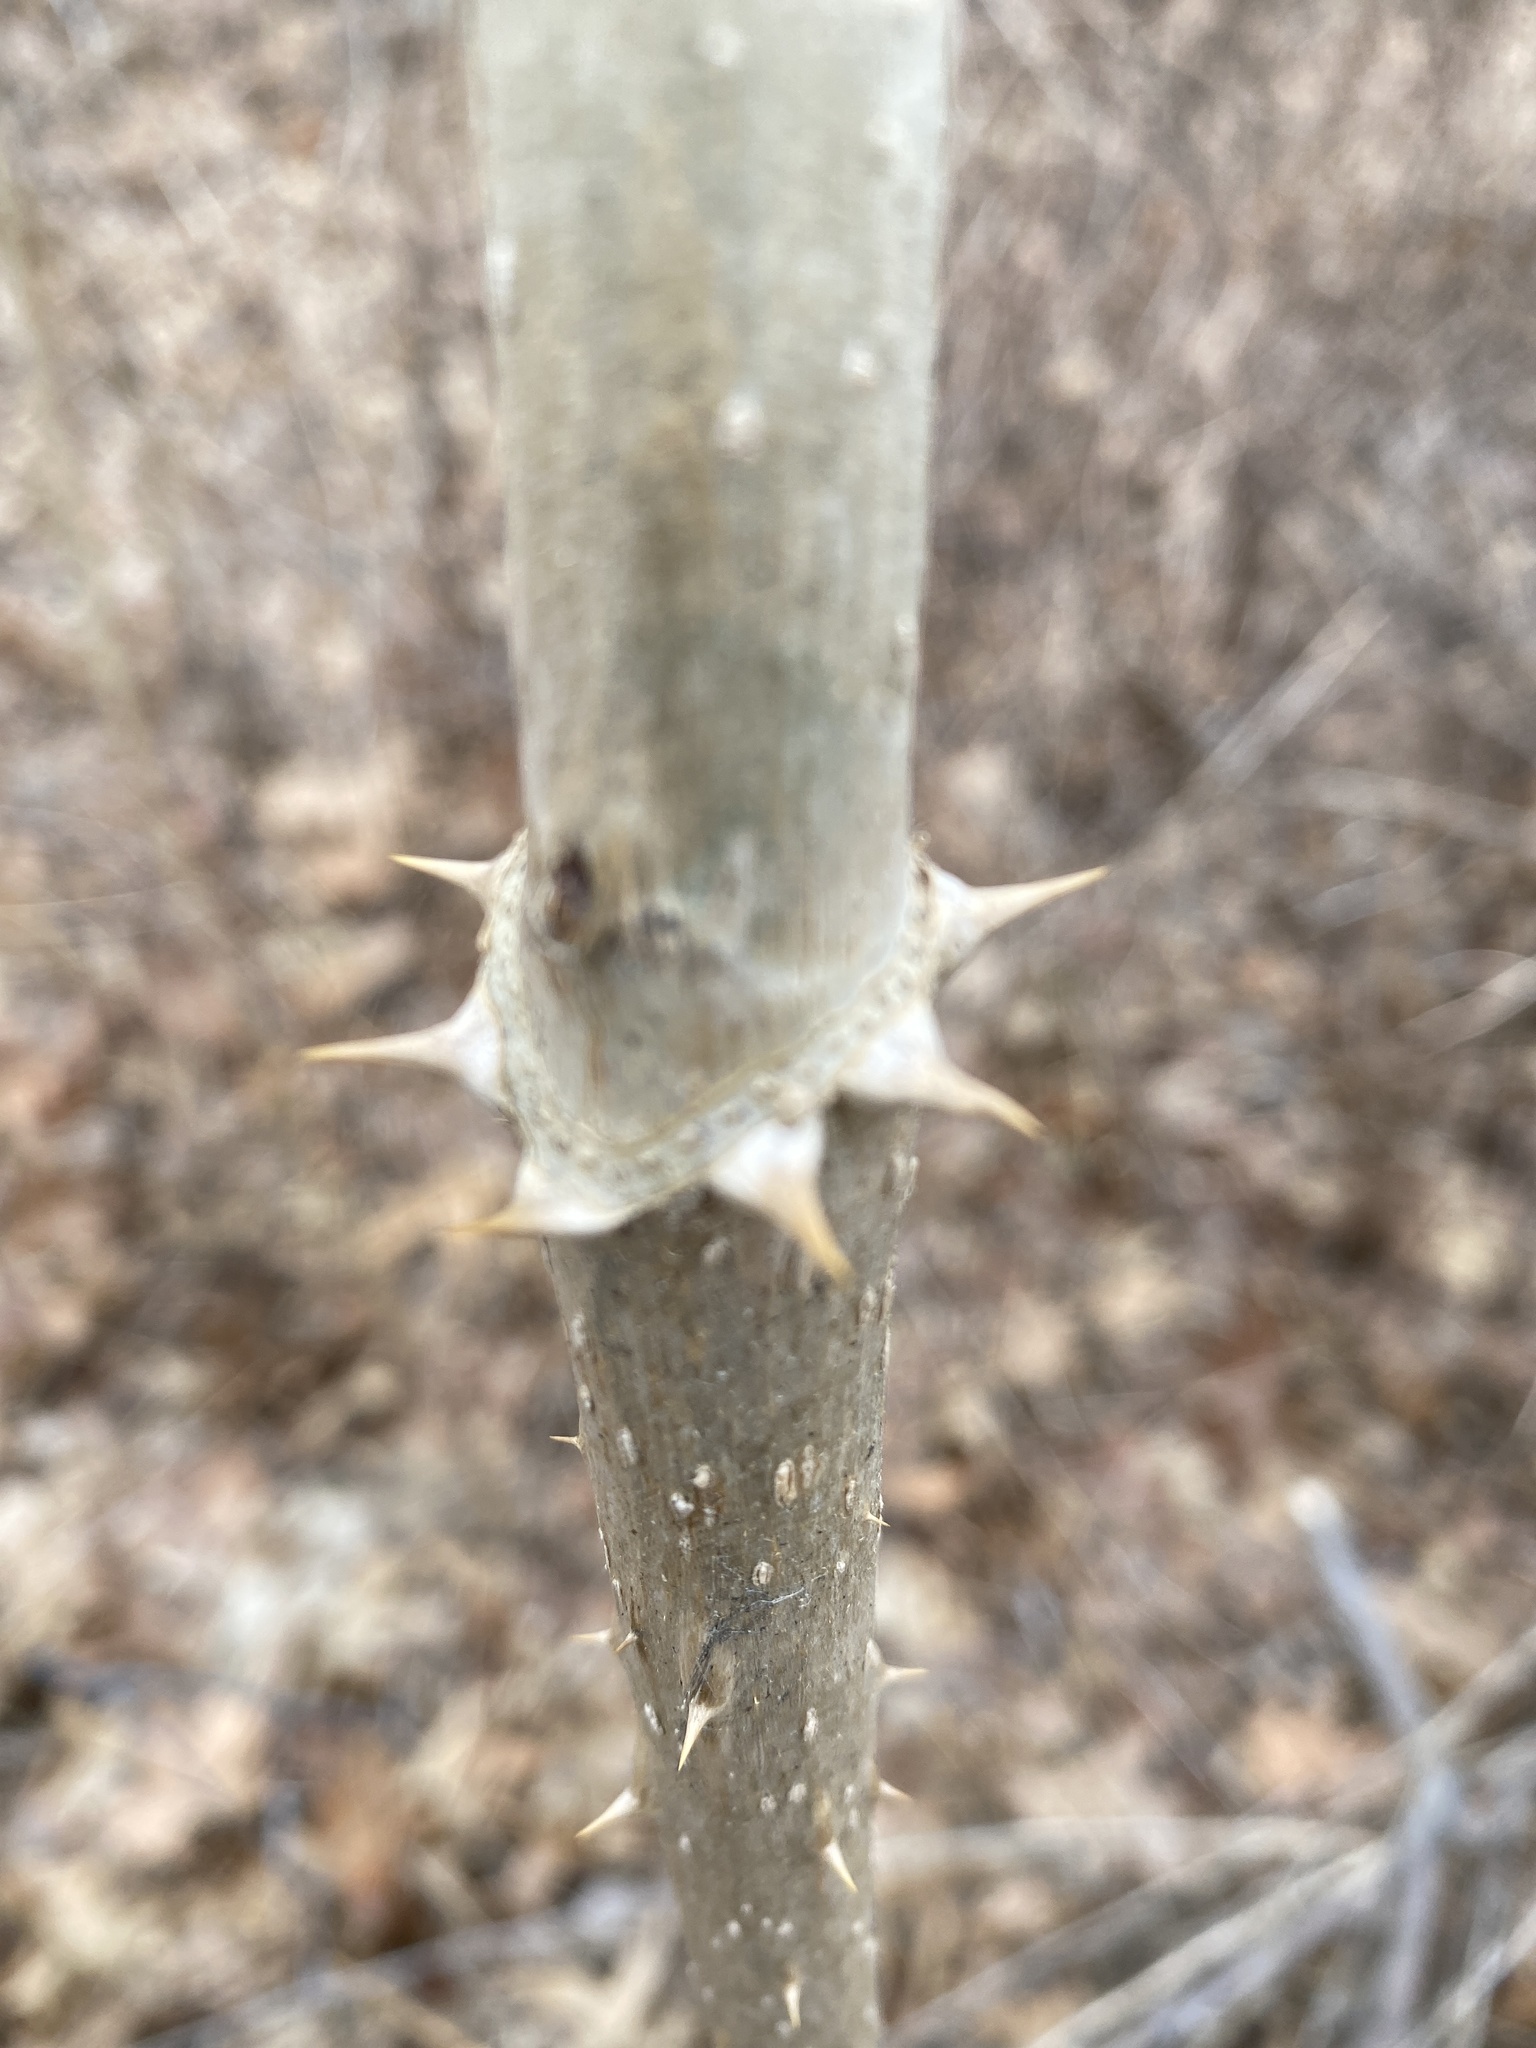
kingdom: Plantae
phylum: Tracheophyta
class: Magnoliopsida
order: Apiales
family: Araliaceae
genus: Aralia
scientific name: Aralia elata
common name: Japanese angelica-tree
